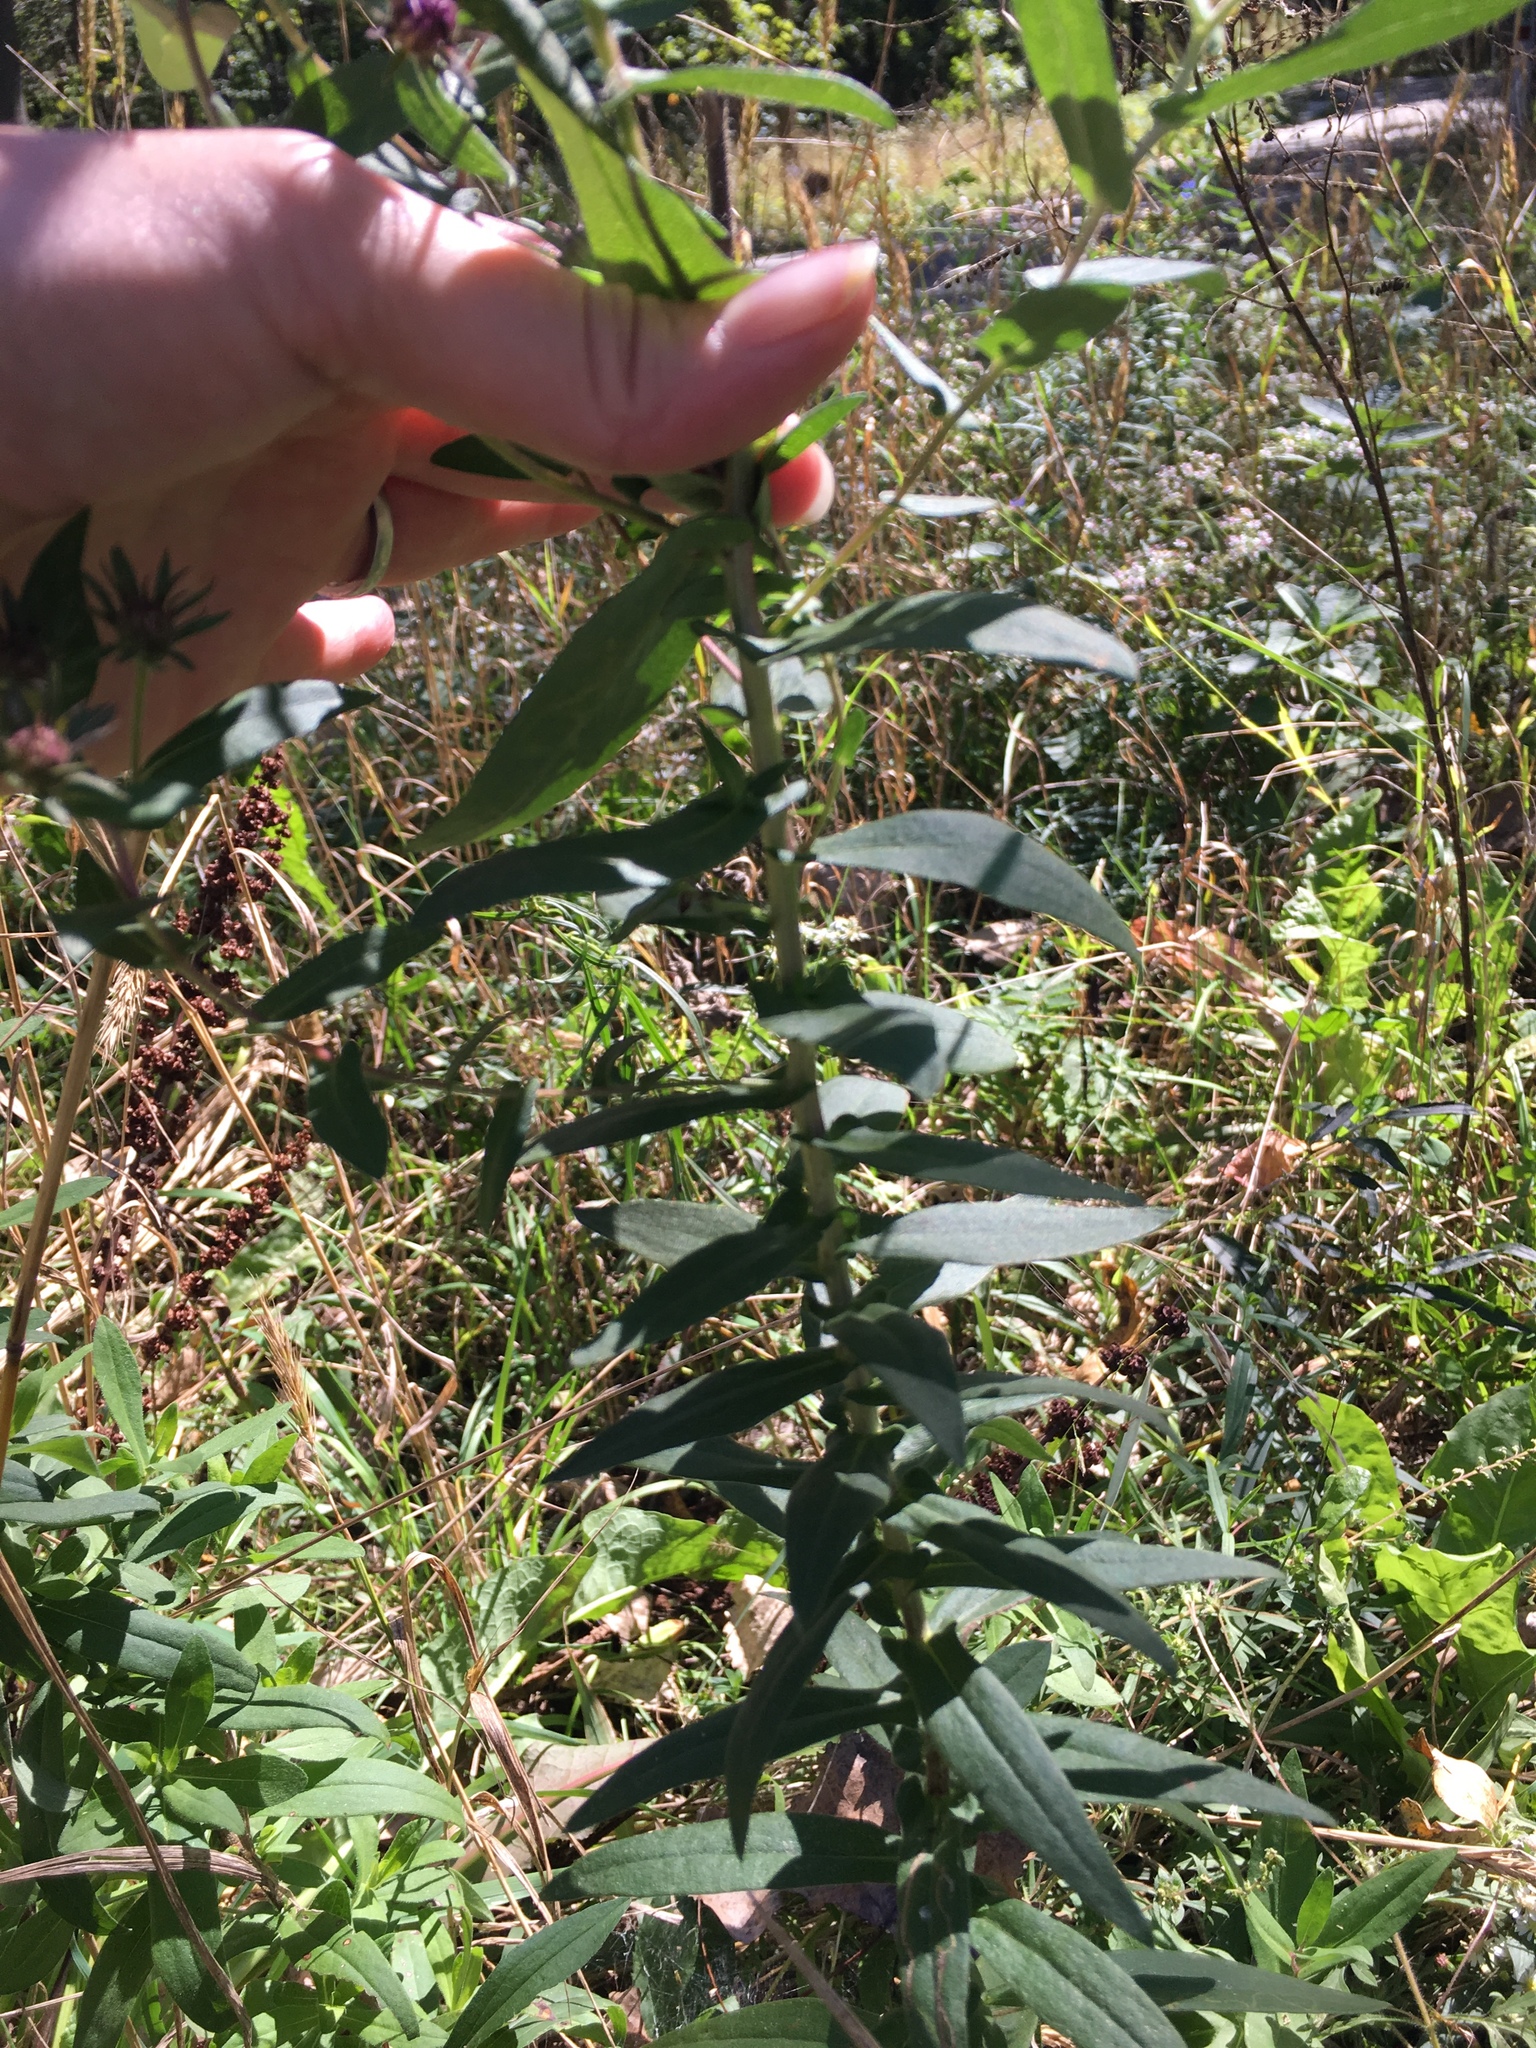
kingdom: Plantae
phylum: Tracheophyta
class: Magnoliopsida
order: Asterales
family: Asteraceae
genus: Symphyotrichum
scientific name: Symphyotrichum novae-angliae
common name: Michaelmas daisy
